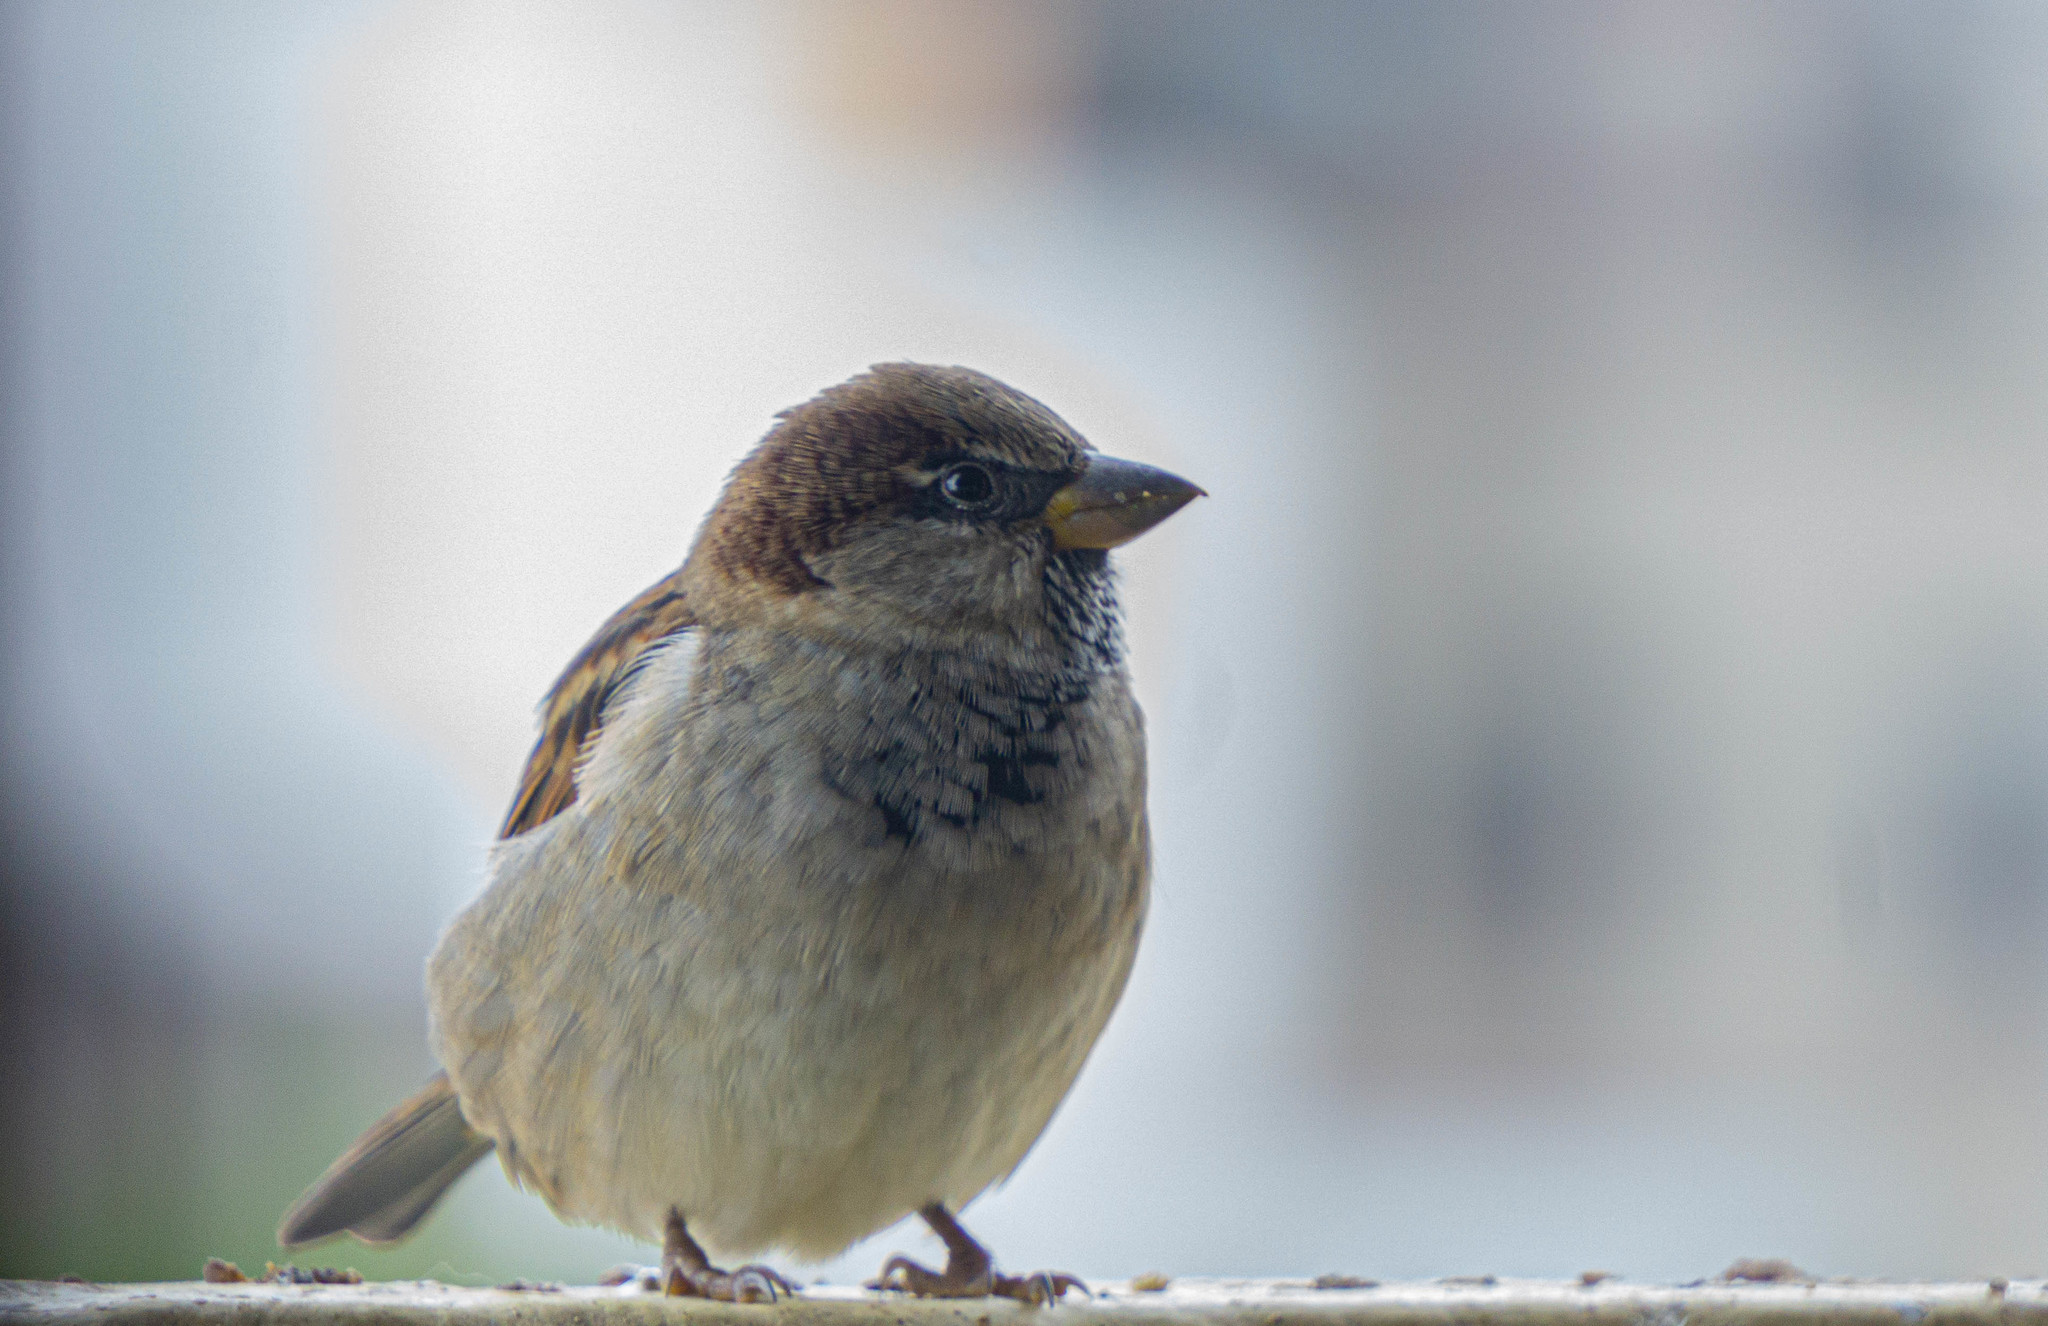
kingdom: Animalia
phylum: Chordata
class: Aves
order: Passeriformes
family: Passeridae
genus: Passer
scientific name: Passer domesticus
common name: House sparrow
